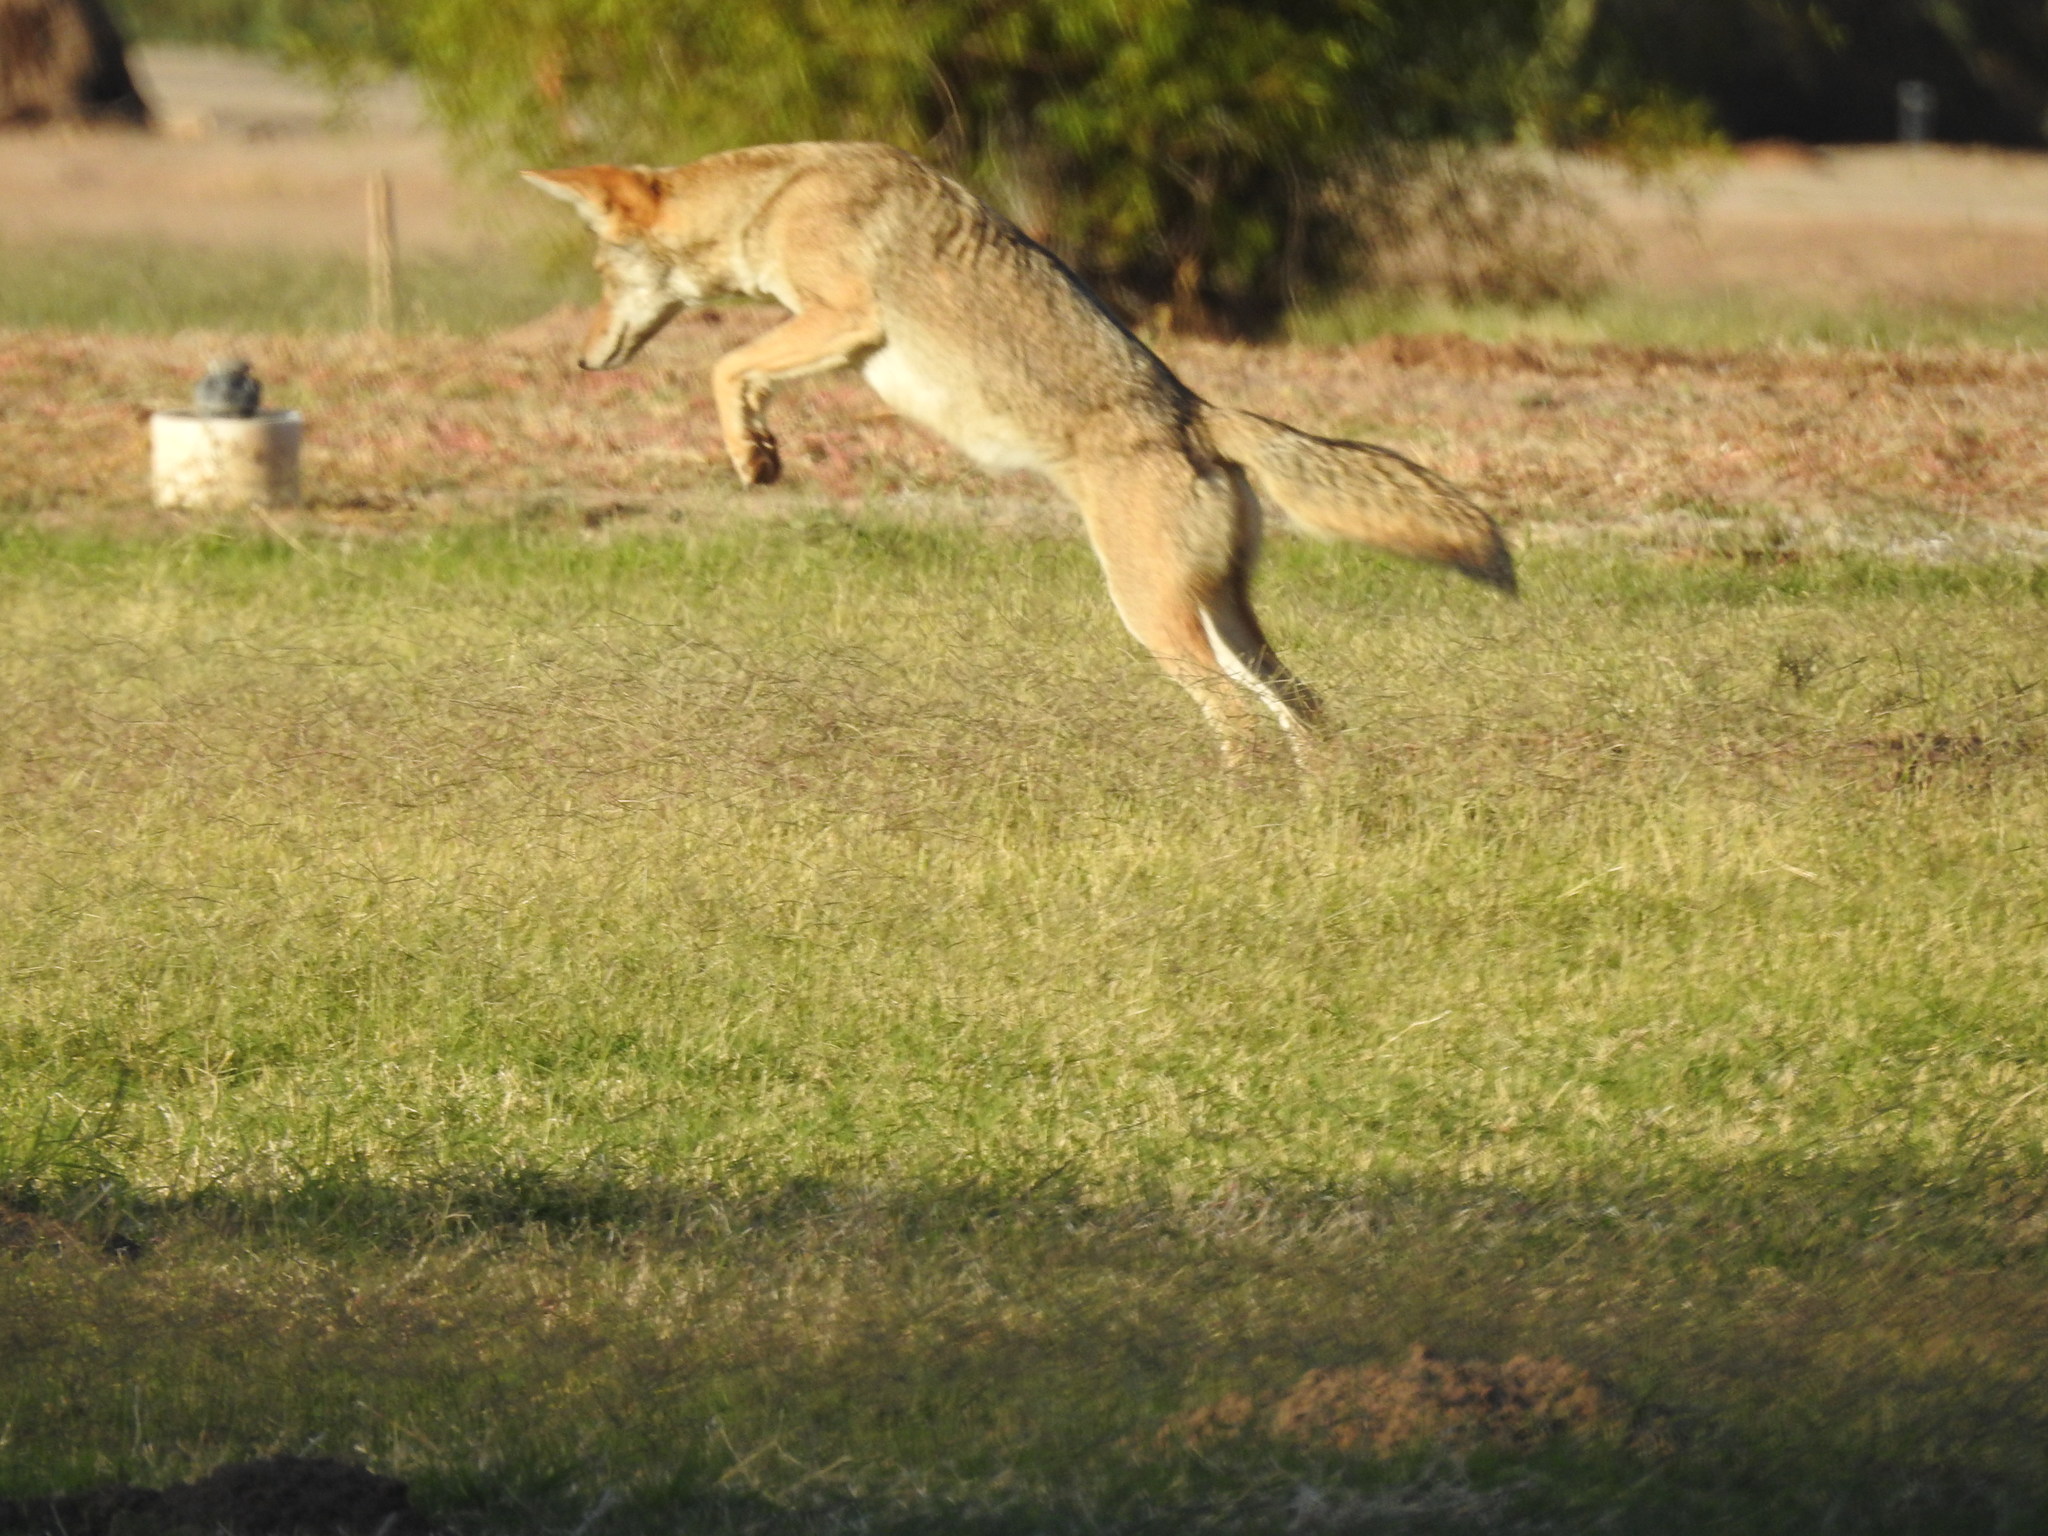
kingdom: Animalia
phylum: Chordata
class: Mammalia
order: Carnivora
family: Canidae
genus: Canis
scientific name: Canis latrans
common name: Coyote
